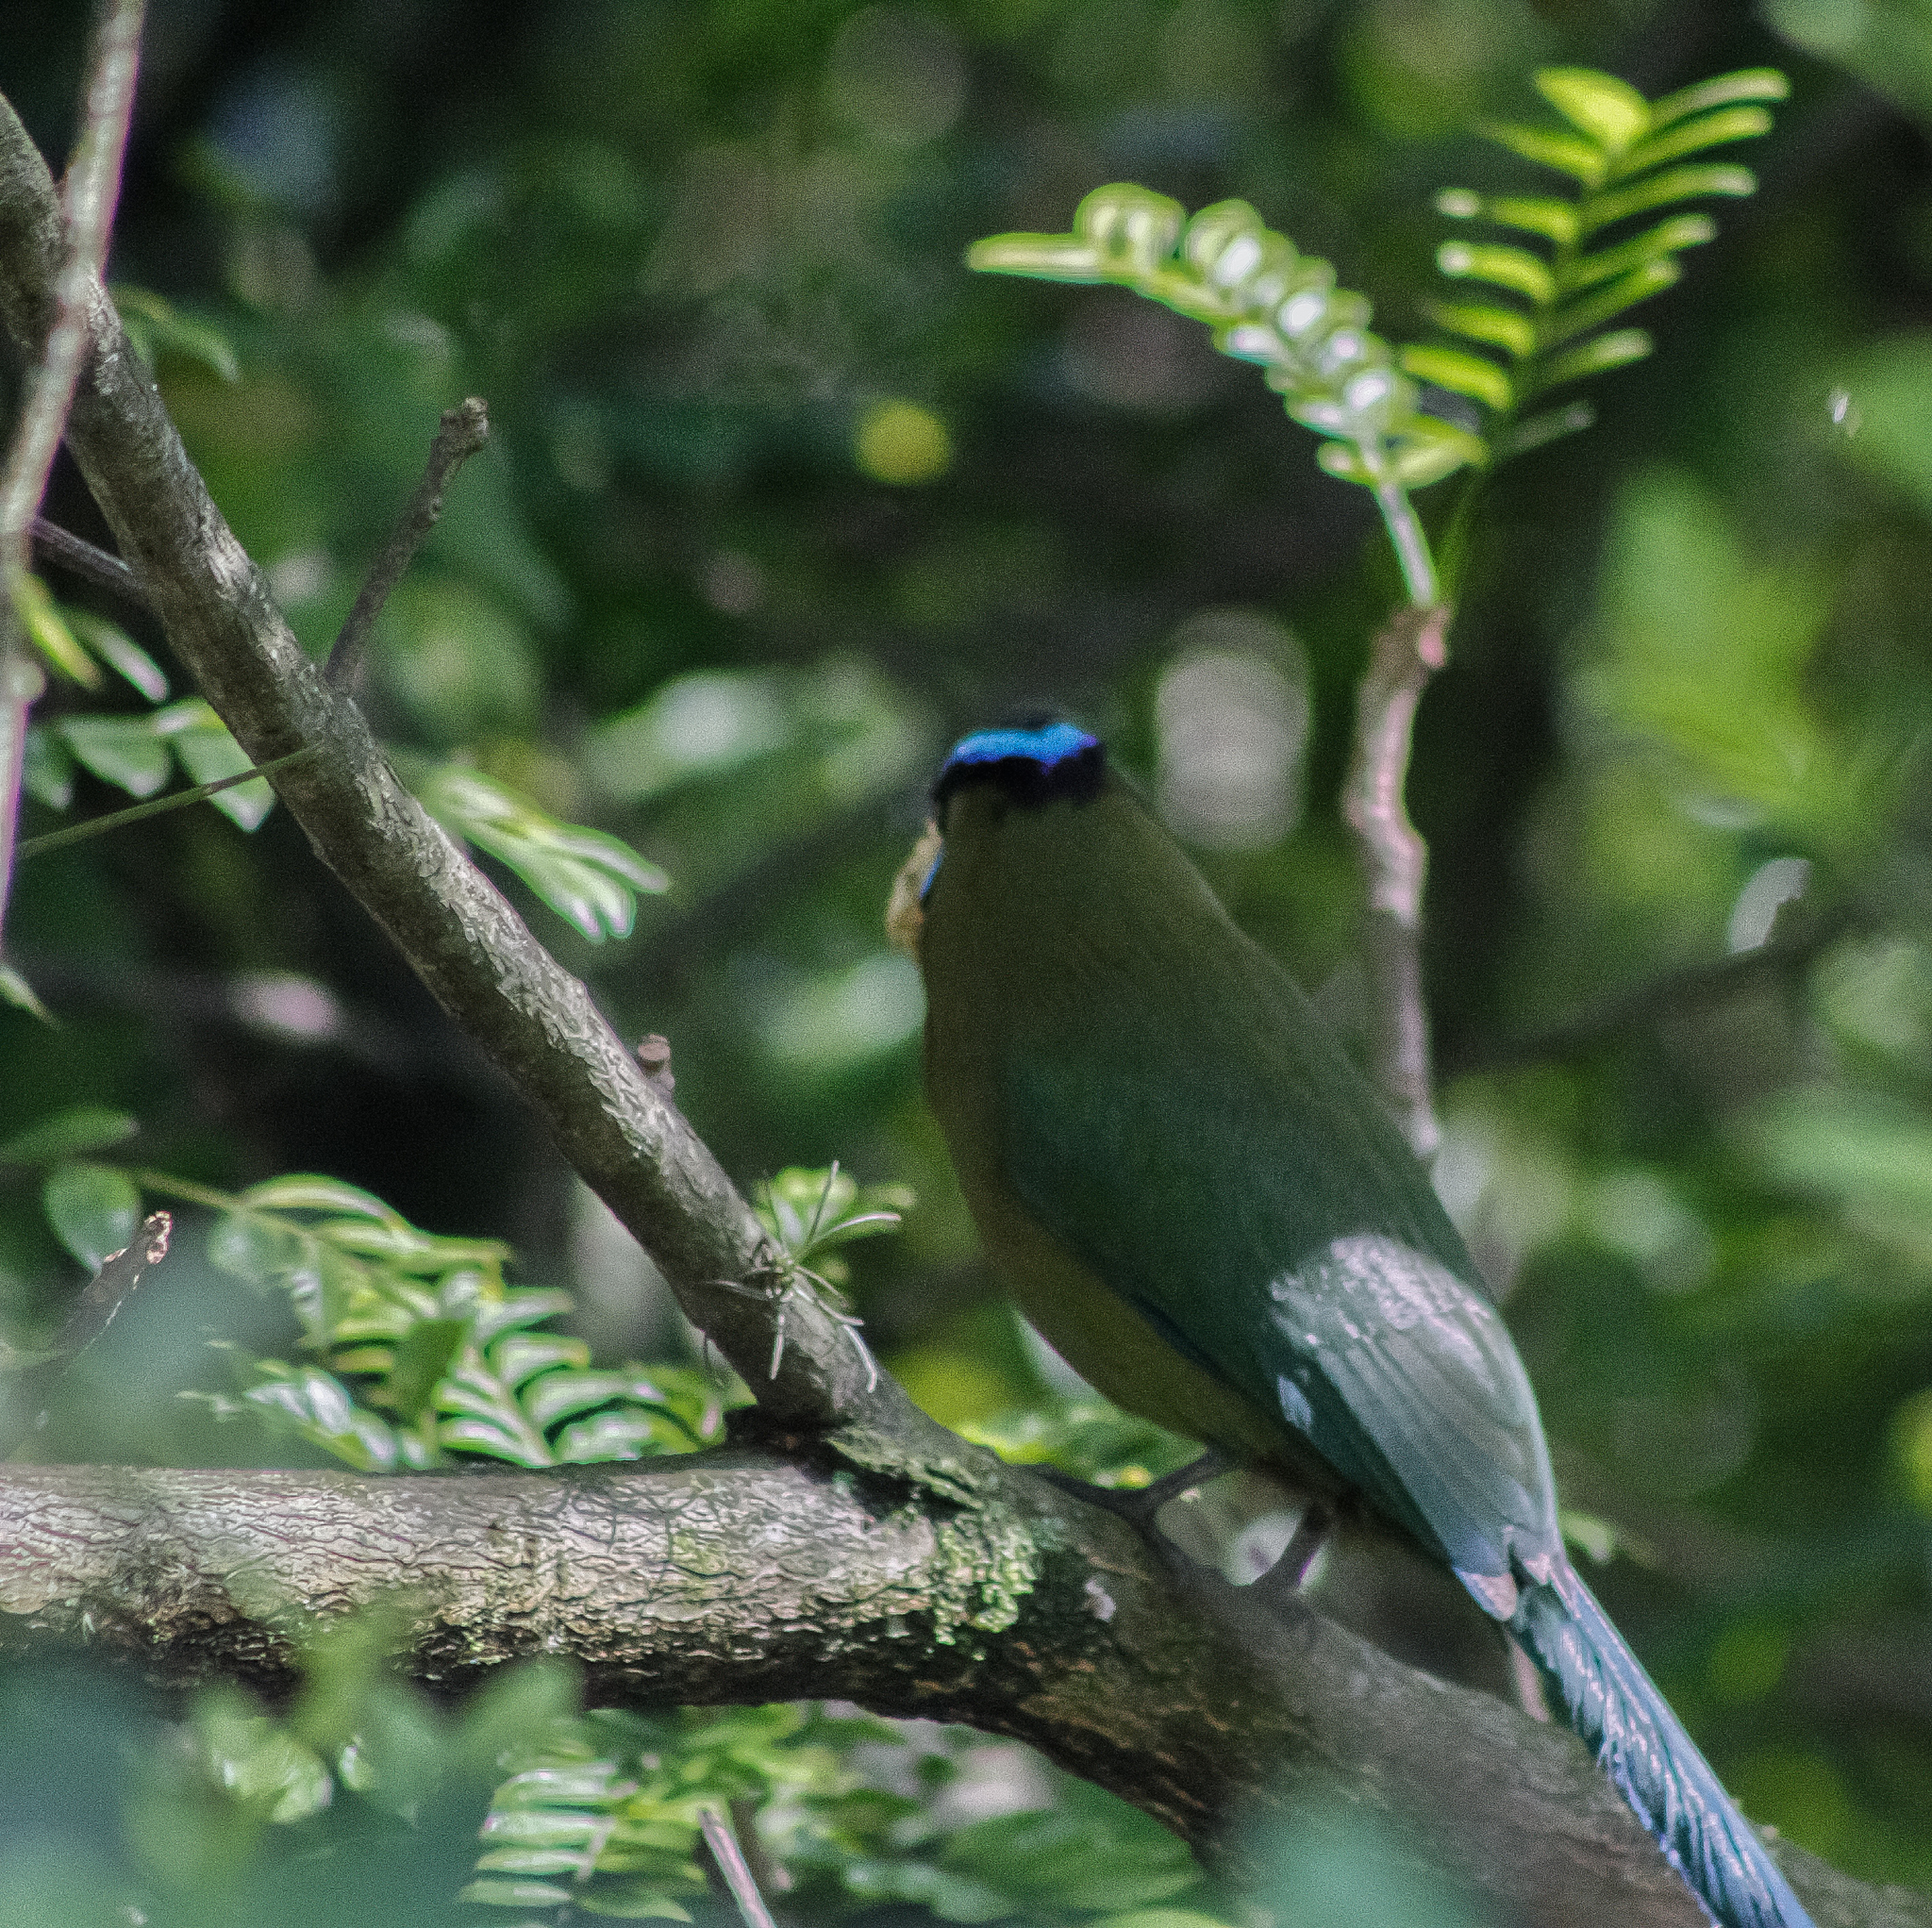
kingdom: Animalia
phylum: Chordata
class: Aves
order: Coraciiformes
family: Momotidae
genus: Momotus
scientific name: Momotus aequatorialis
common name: Andean motmot
